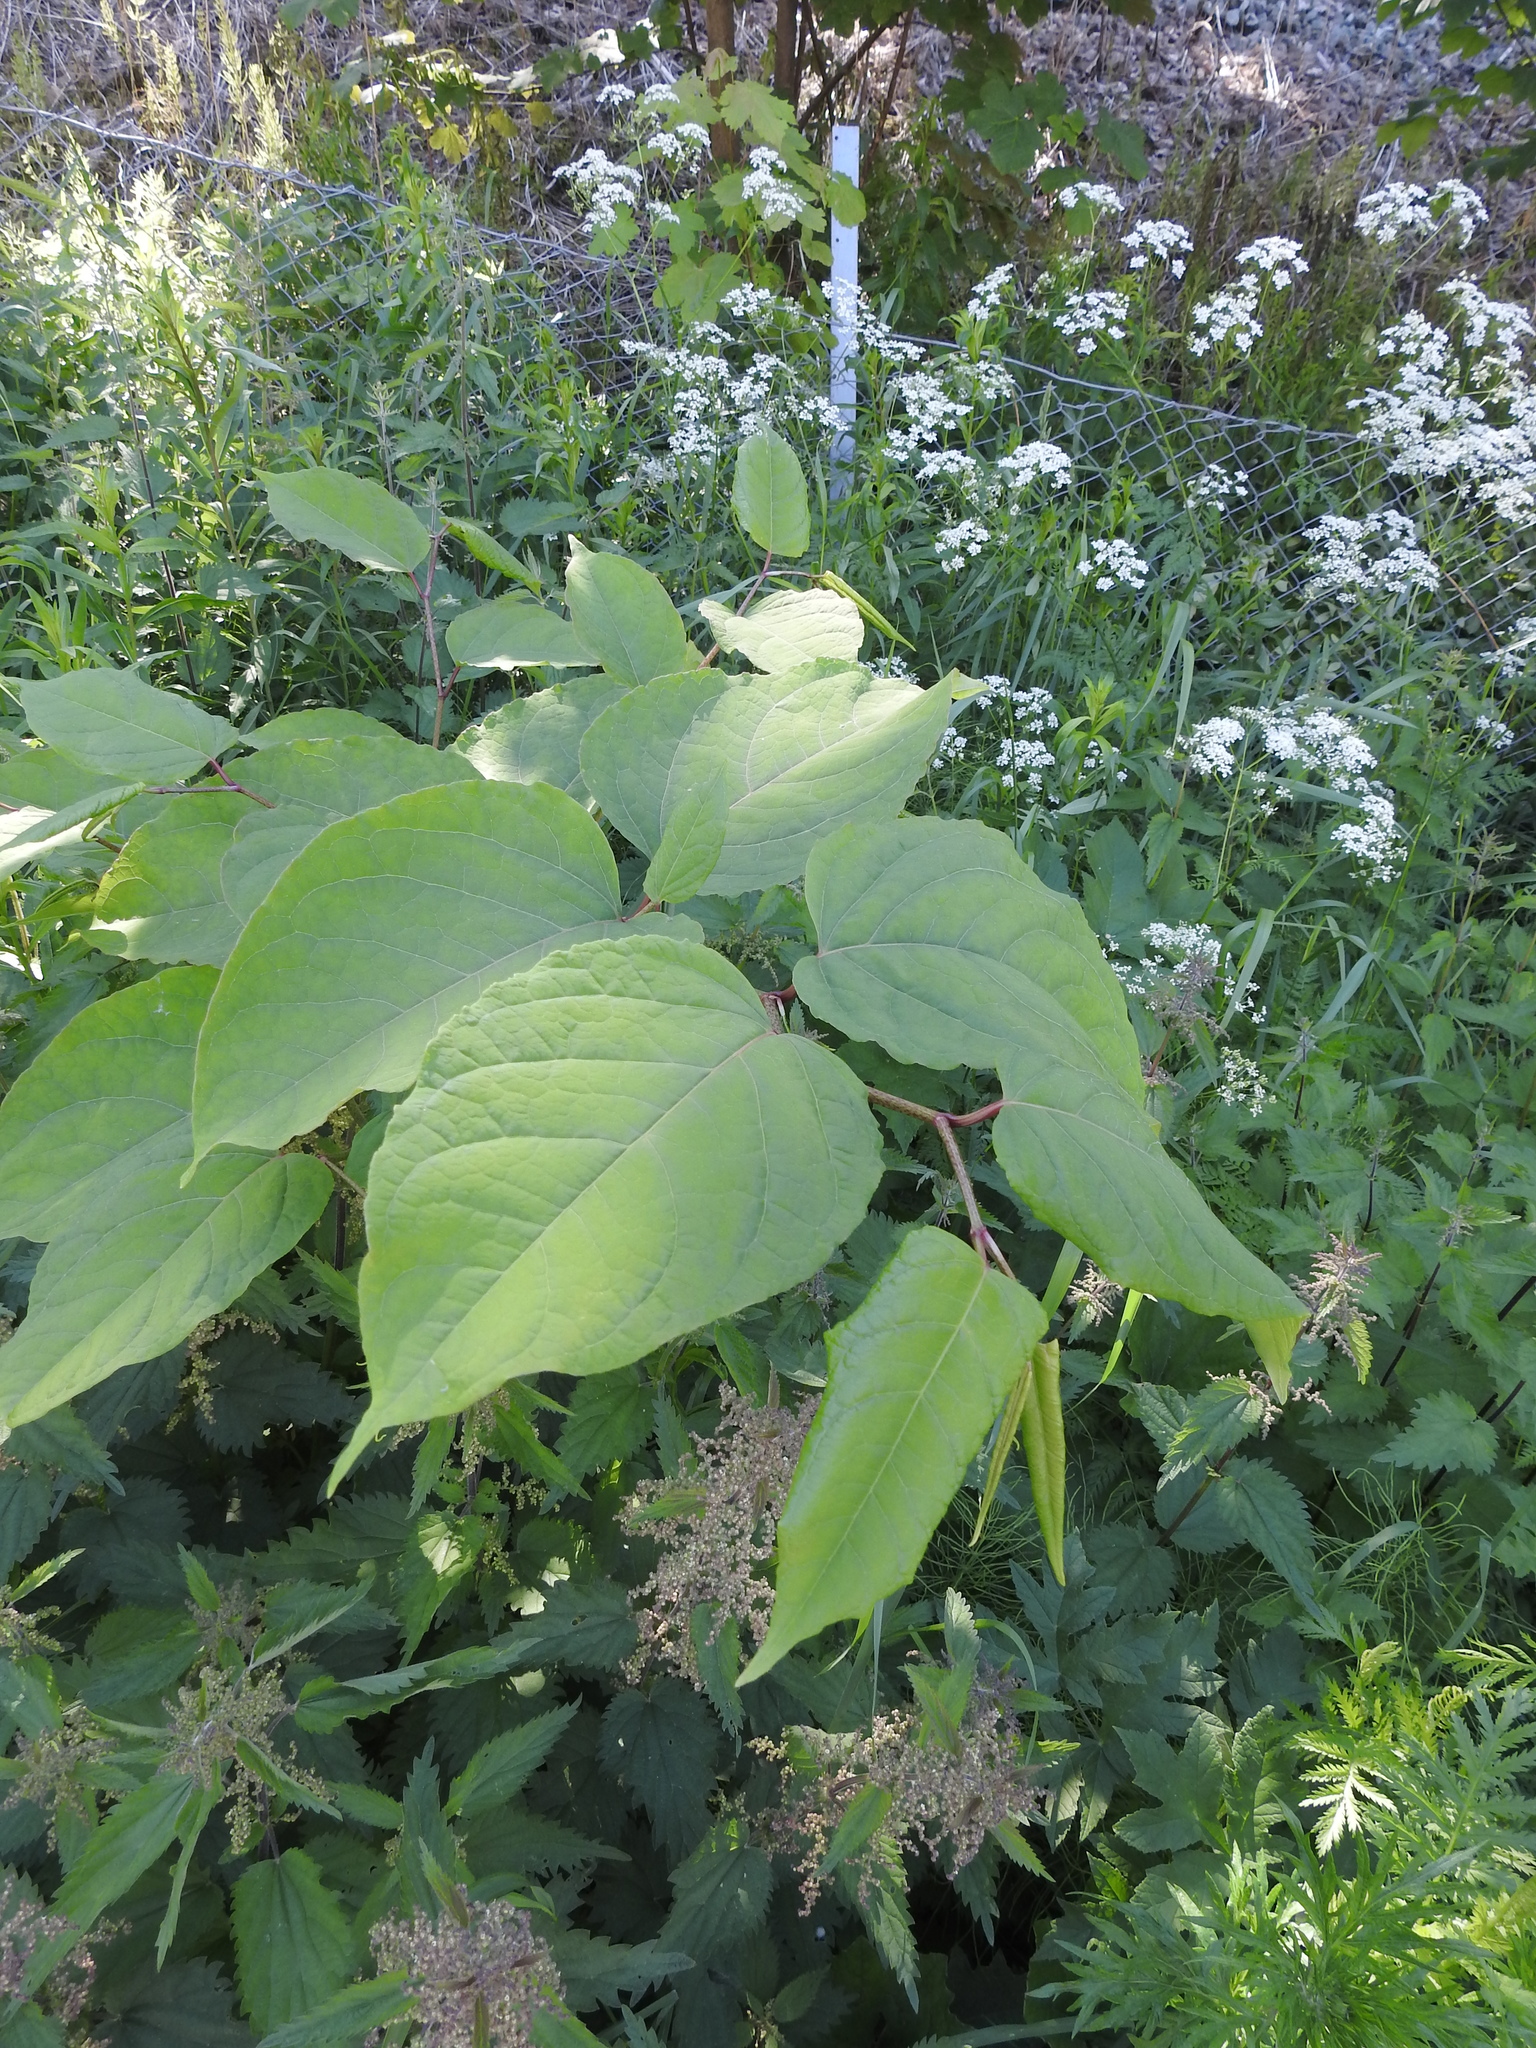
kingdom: Plantae
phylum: Tracheophyta
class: Magnoliopsida
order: Caryophyllales
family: Polygonaceae
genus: Reynoutria
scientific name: Reynoutria bohemica
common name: Bohemian knotweed
